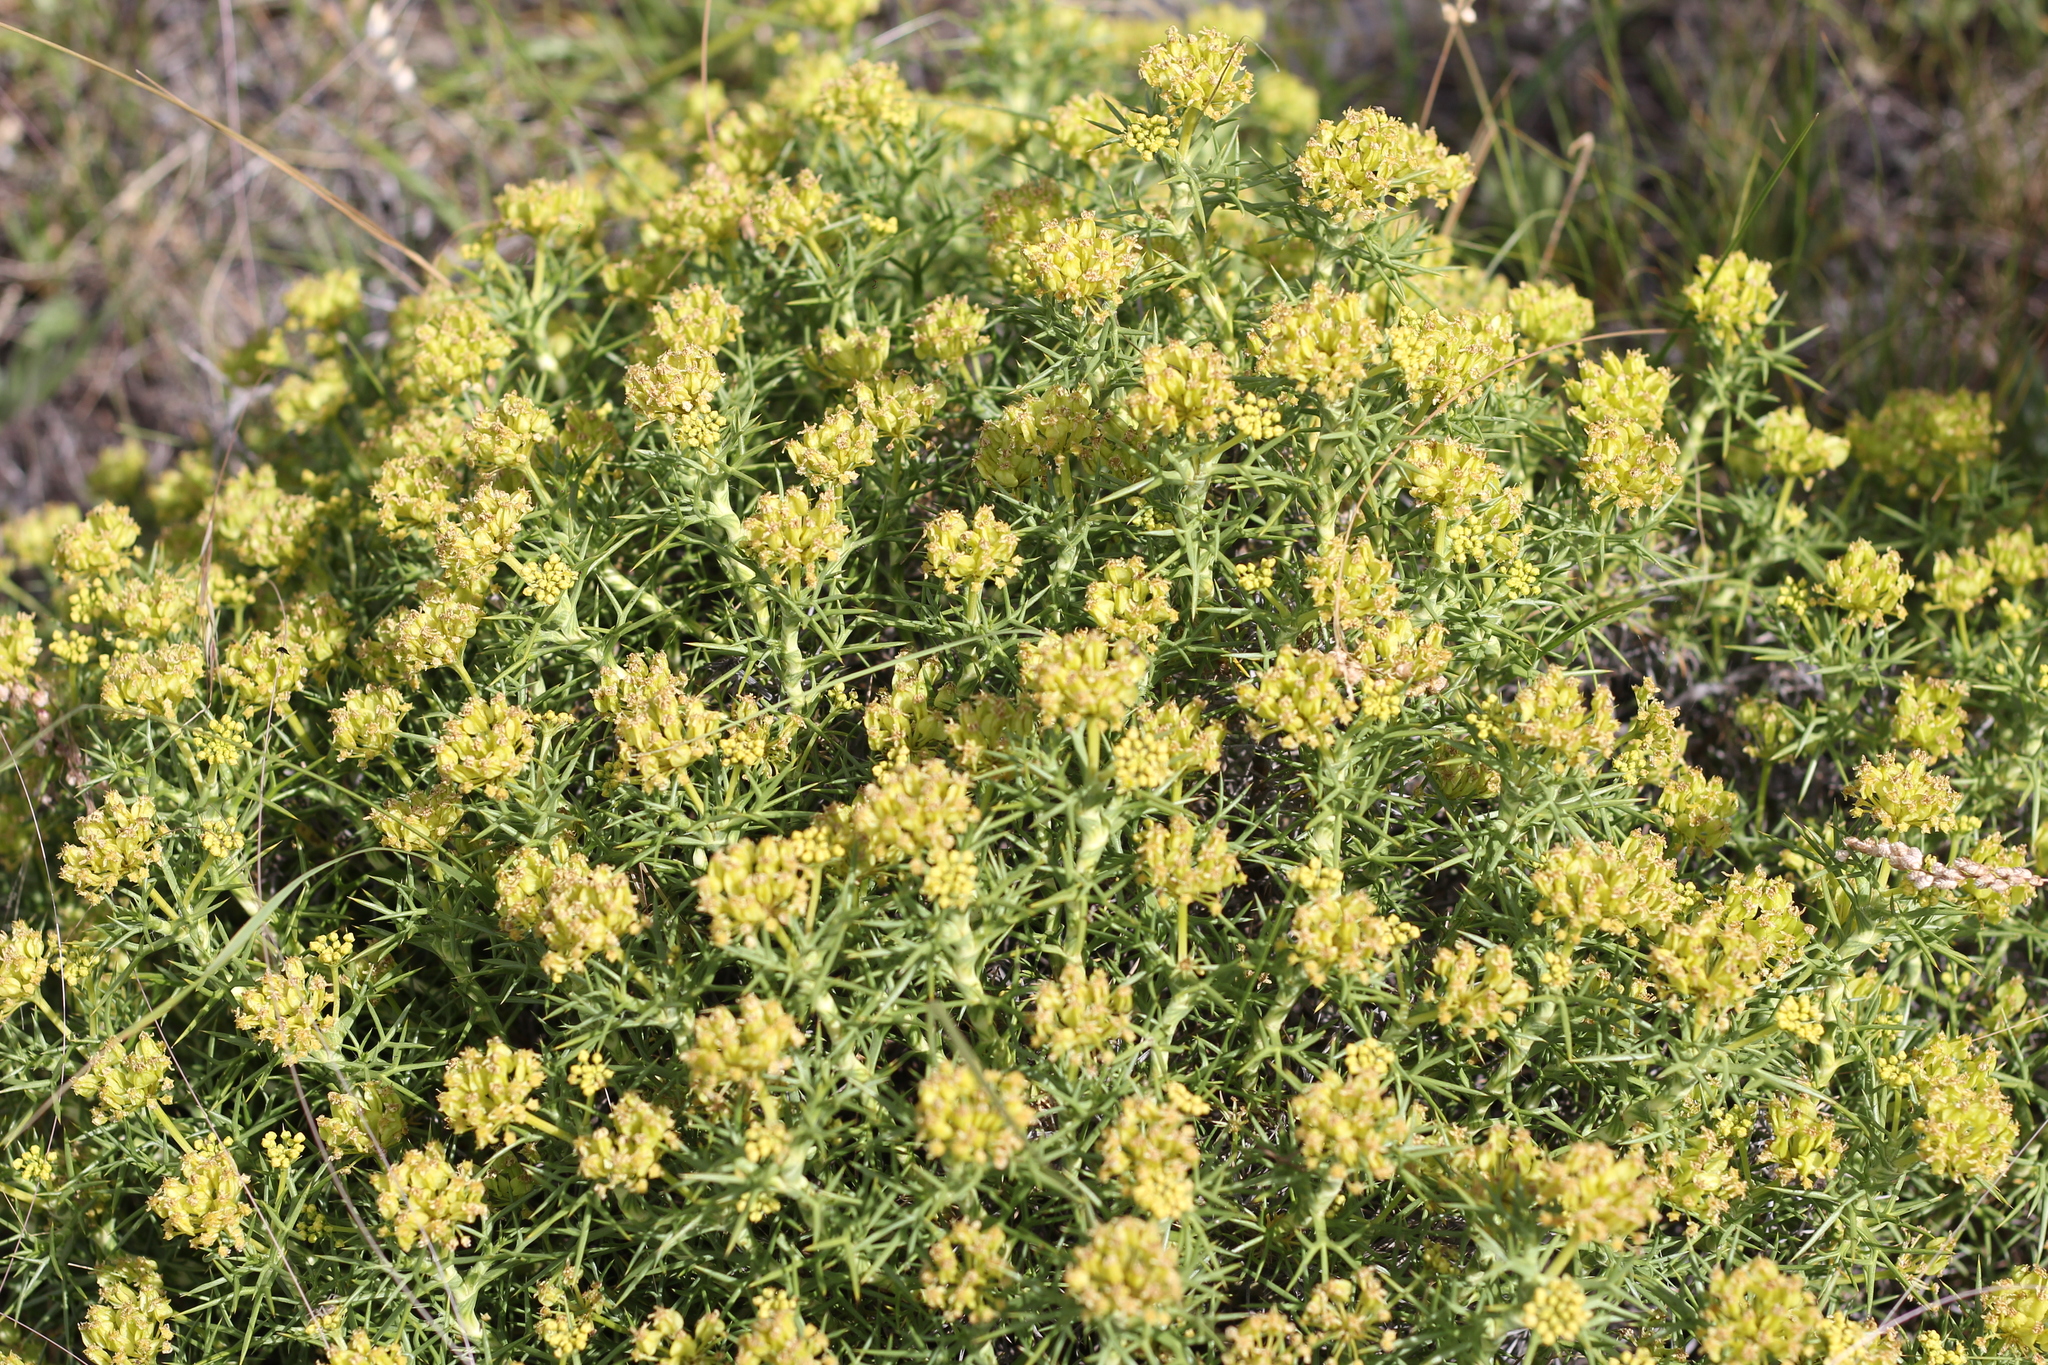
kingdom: Plantae
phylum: Tracheophyta
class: Magnoliopsida
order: Apiales
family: Apiaceae
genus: Azorella
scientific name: Azorella prolifera
